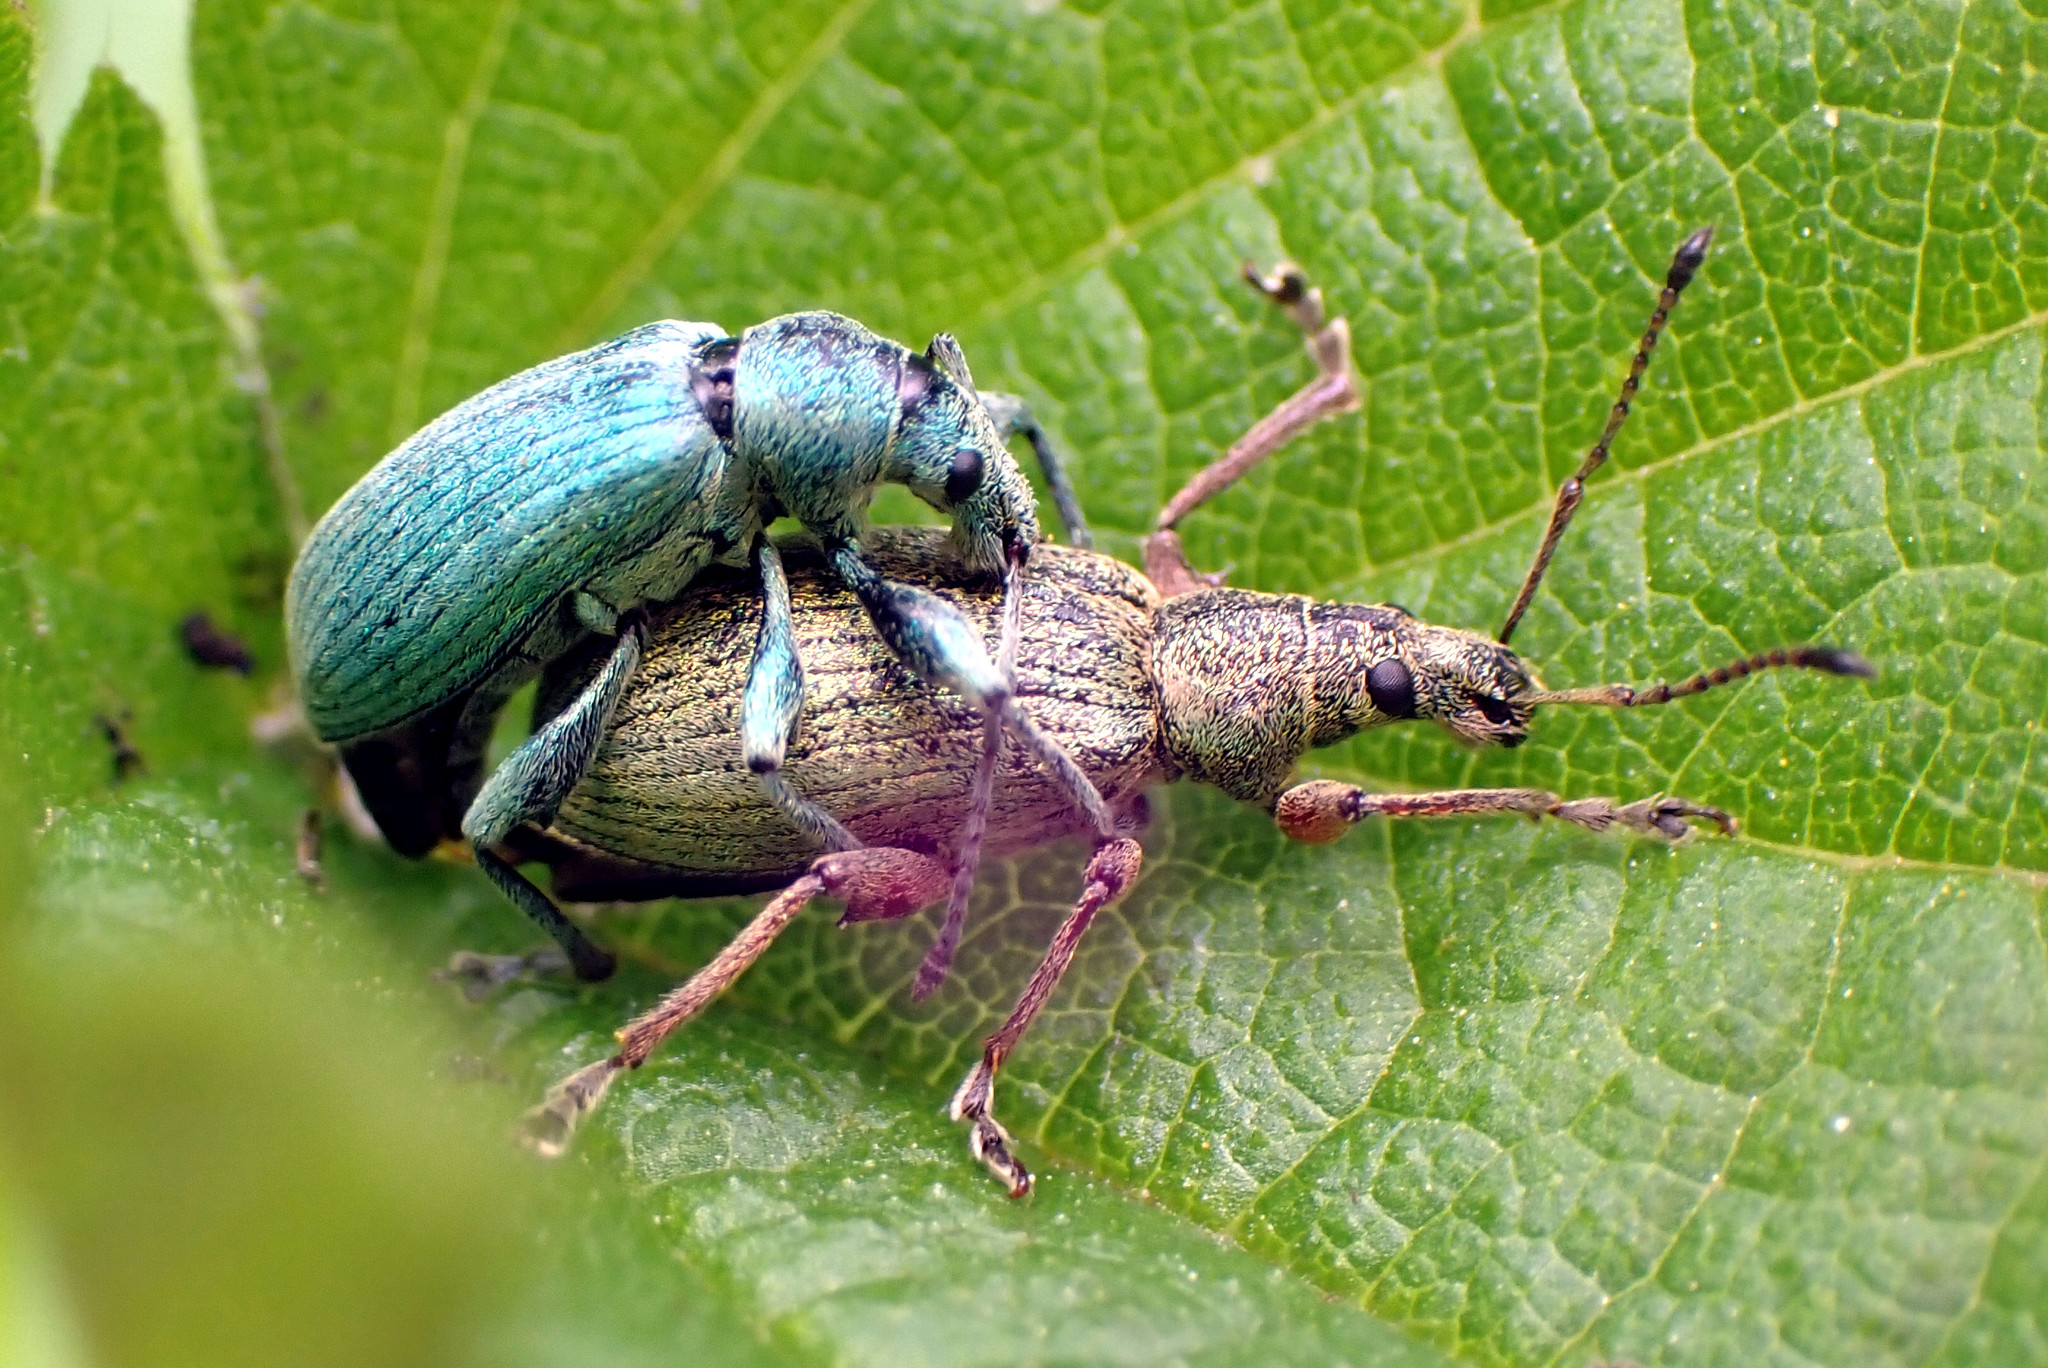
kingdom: Animalia
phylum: Arthropoda
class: Insecta
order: Coleoptera
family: Curculionidae
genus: Phyllobius
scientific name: Phyllobius pomaceus
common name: Green nettle weevil
